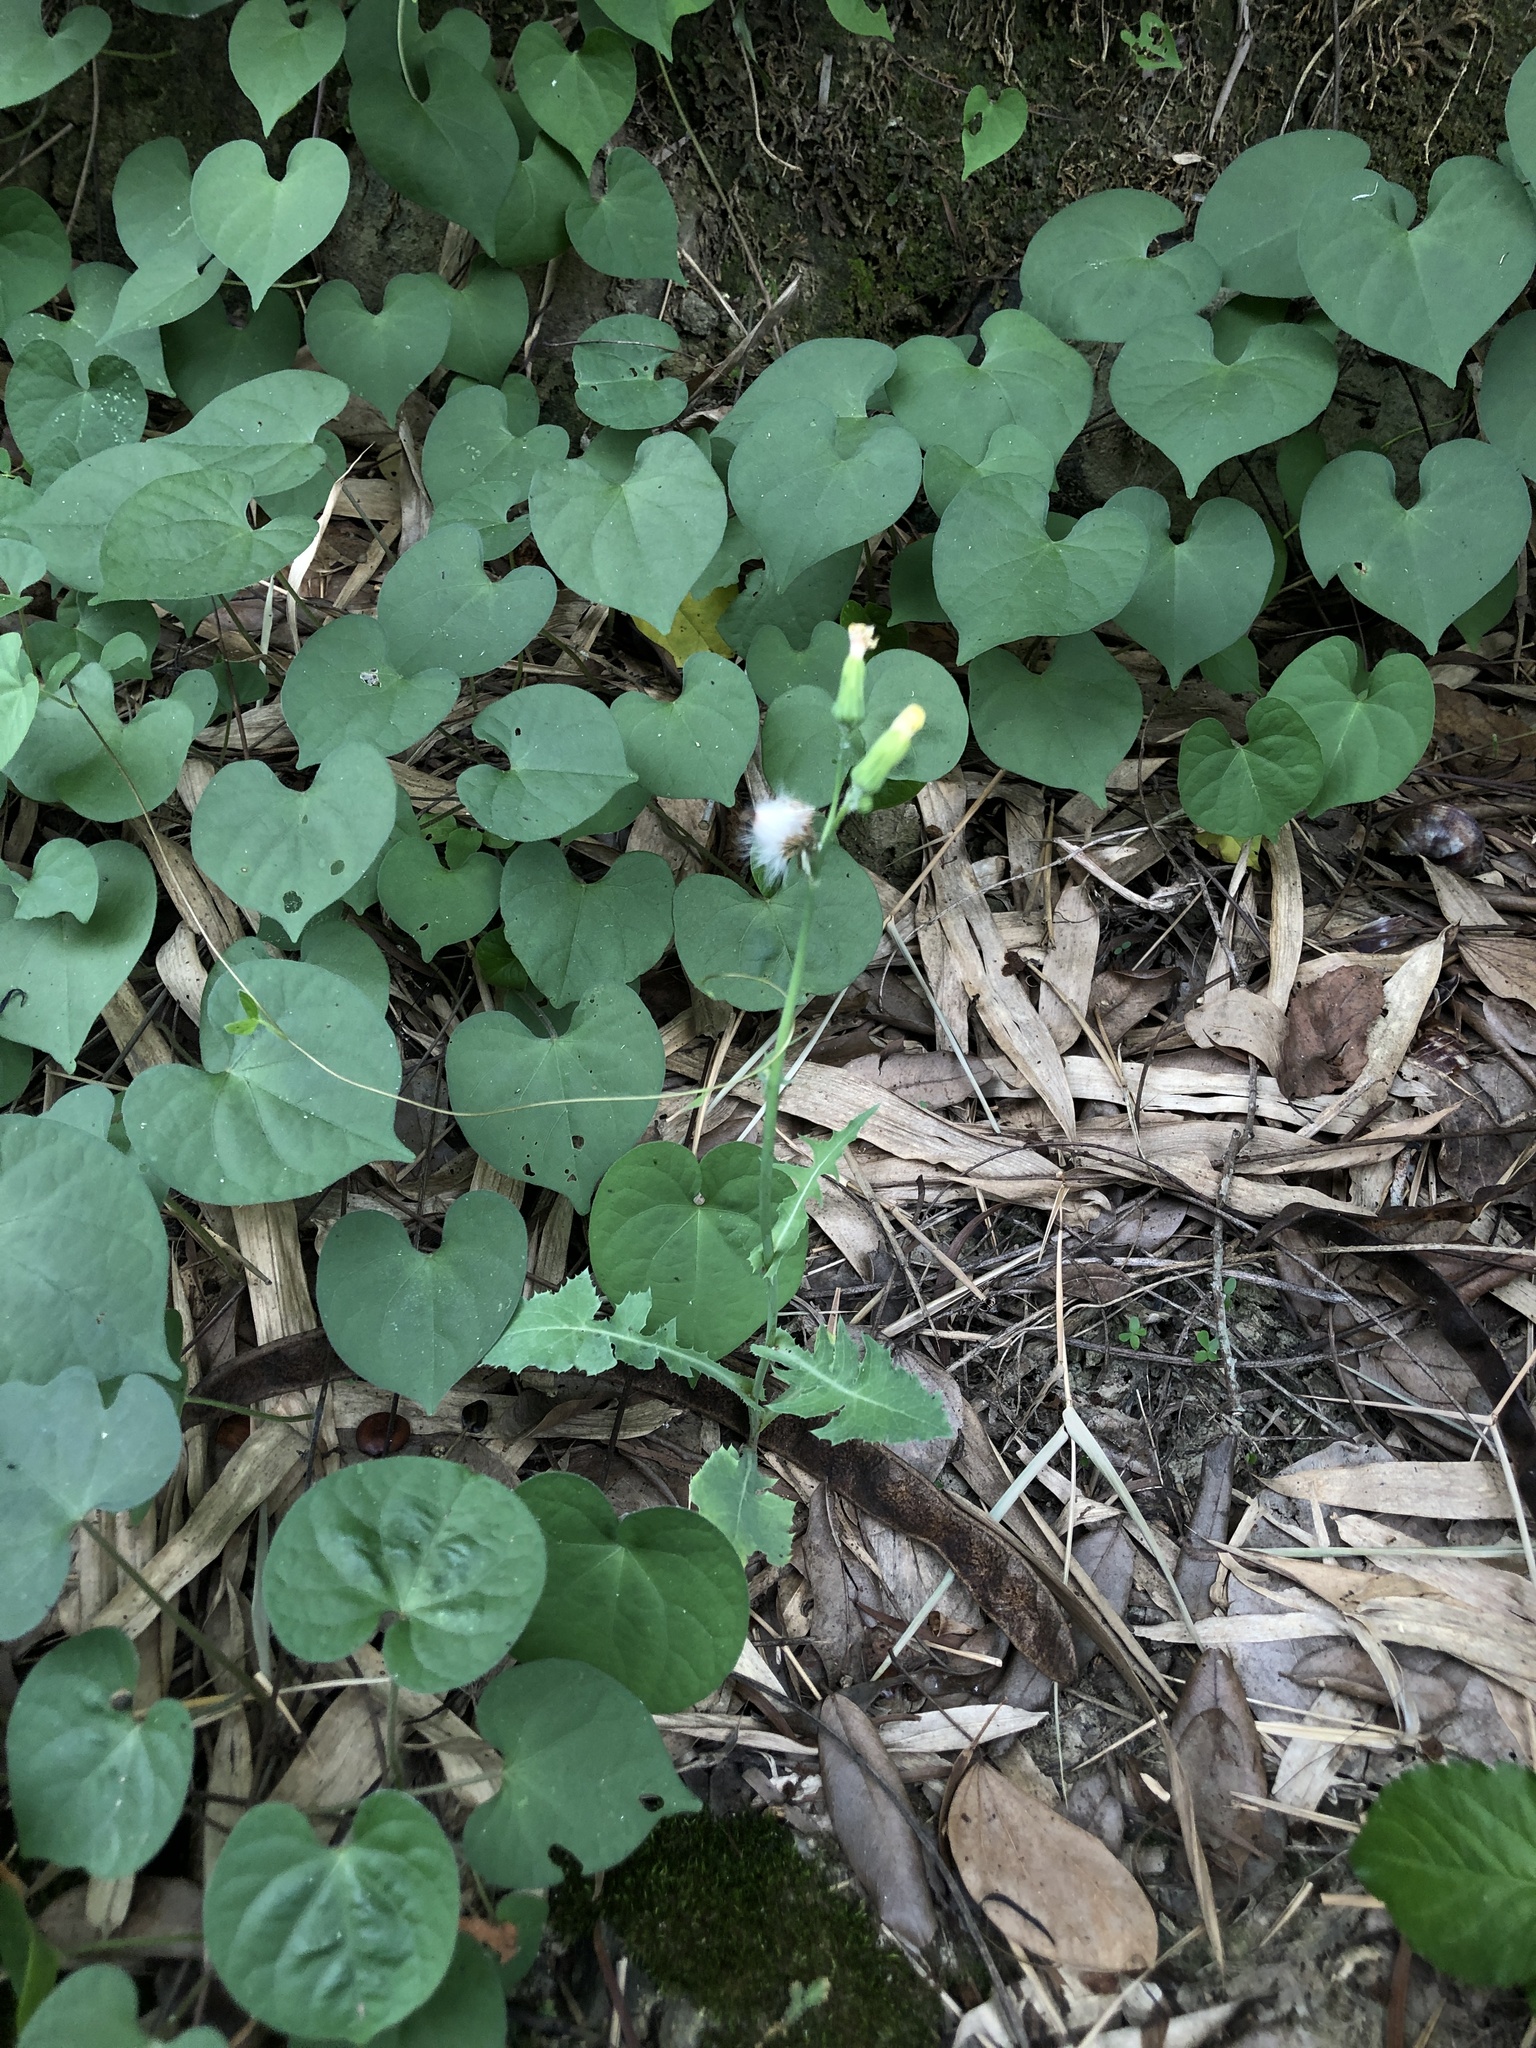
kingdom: Plantae
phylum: Tracheophyta
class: Magnoliopsida
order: Asterales
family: Asteraceae
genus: Emilia
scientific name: Emilia praetermissa
